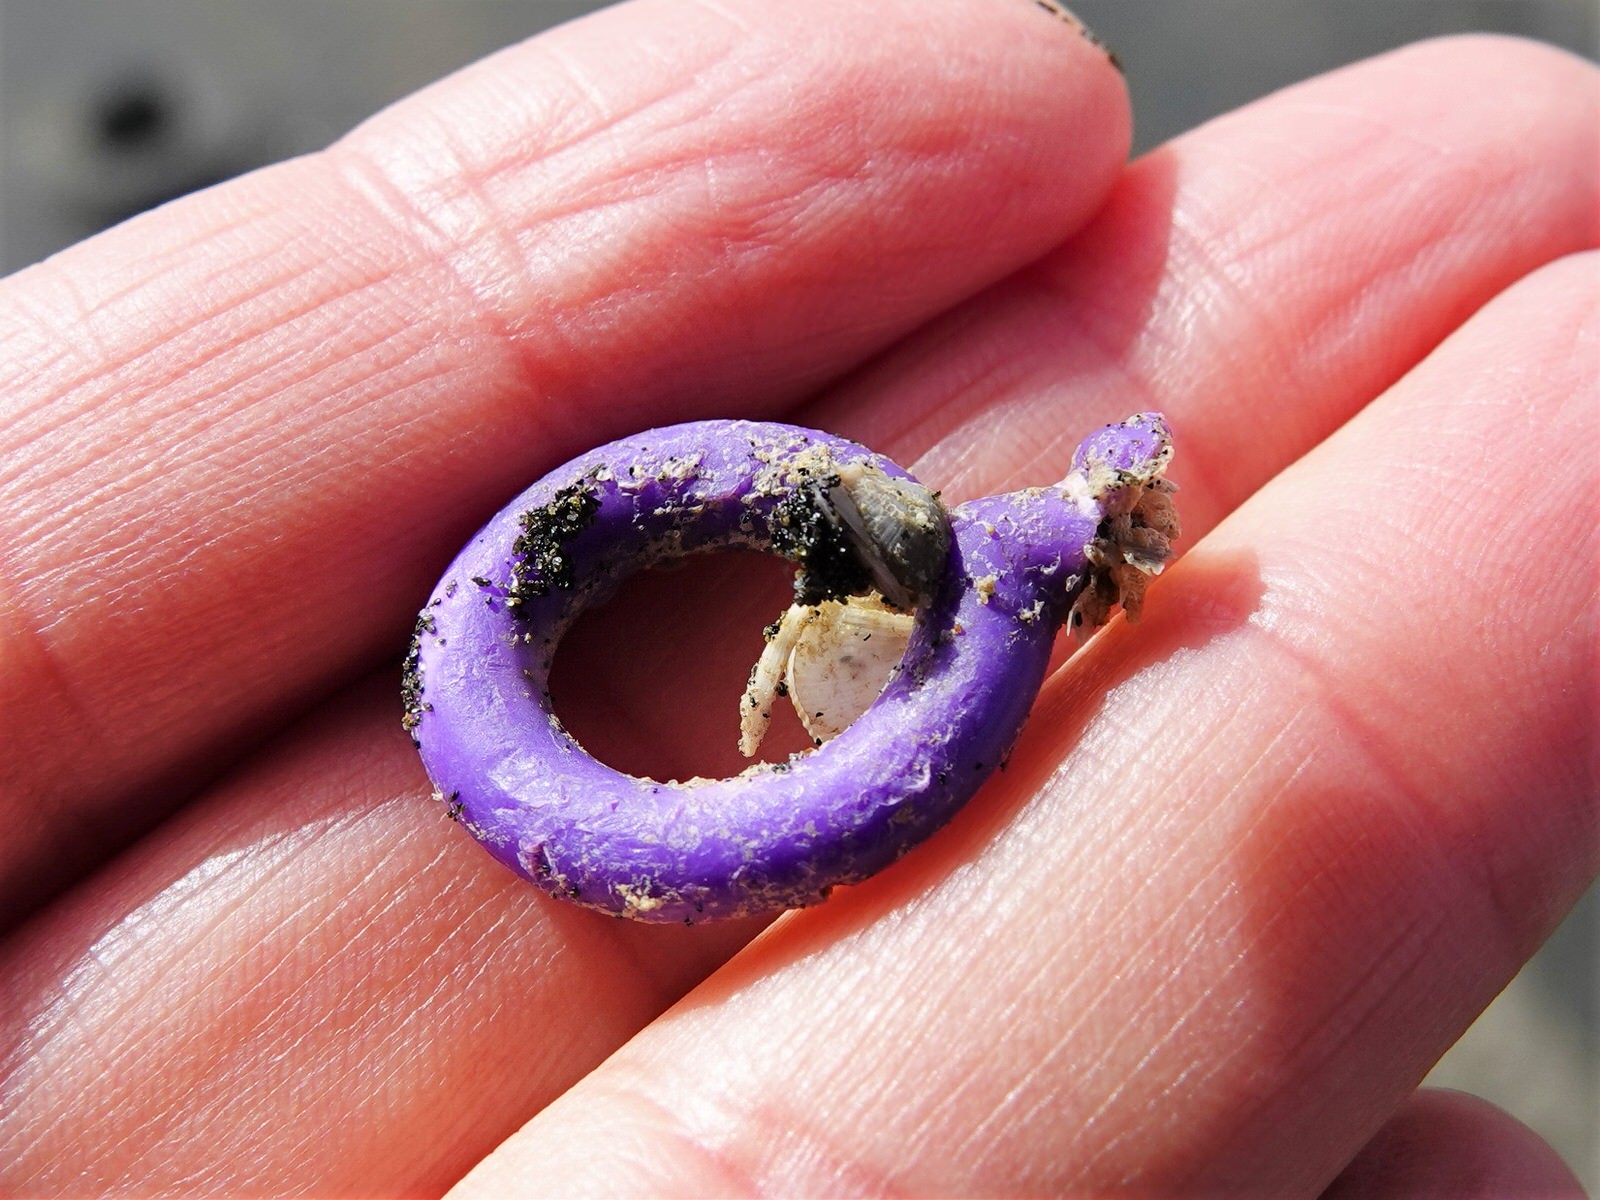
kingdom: Animalia
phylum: Arthropoda
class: Maxillopoda
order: Pedunculata
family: Lepadidae
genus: Lepas
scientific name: Lepas pectinata
